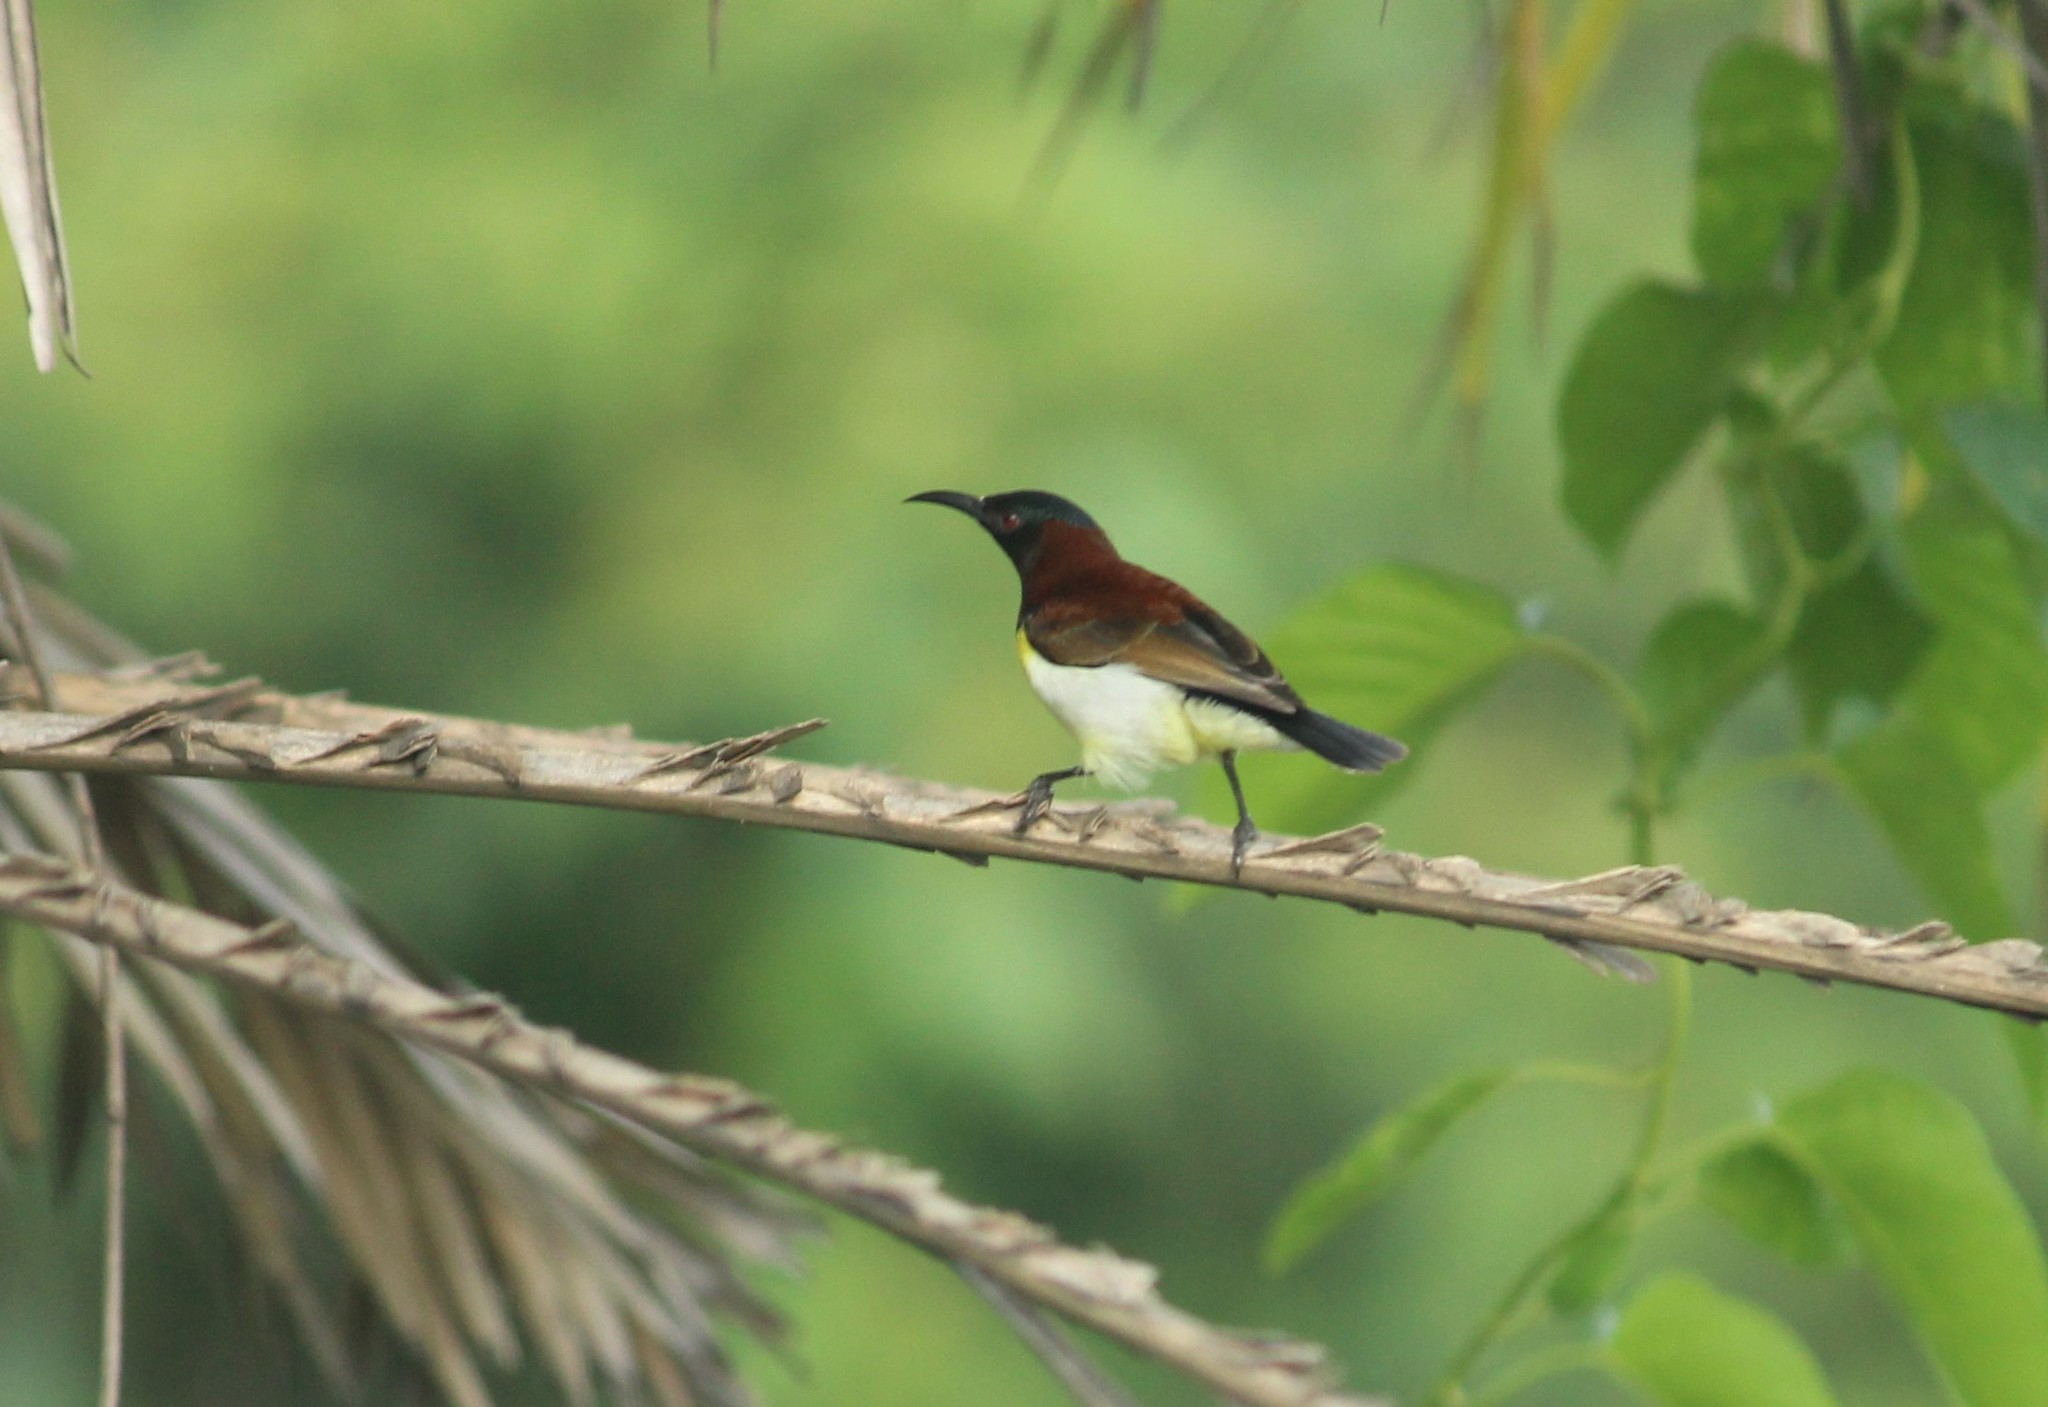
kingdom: Animalia
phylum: Chordata
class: Aves
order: Passeriformes
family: Nectariniidae
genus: Leptocoma
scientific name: Leptocoma zeylonica
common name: Purple-rumped sunbird
